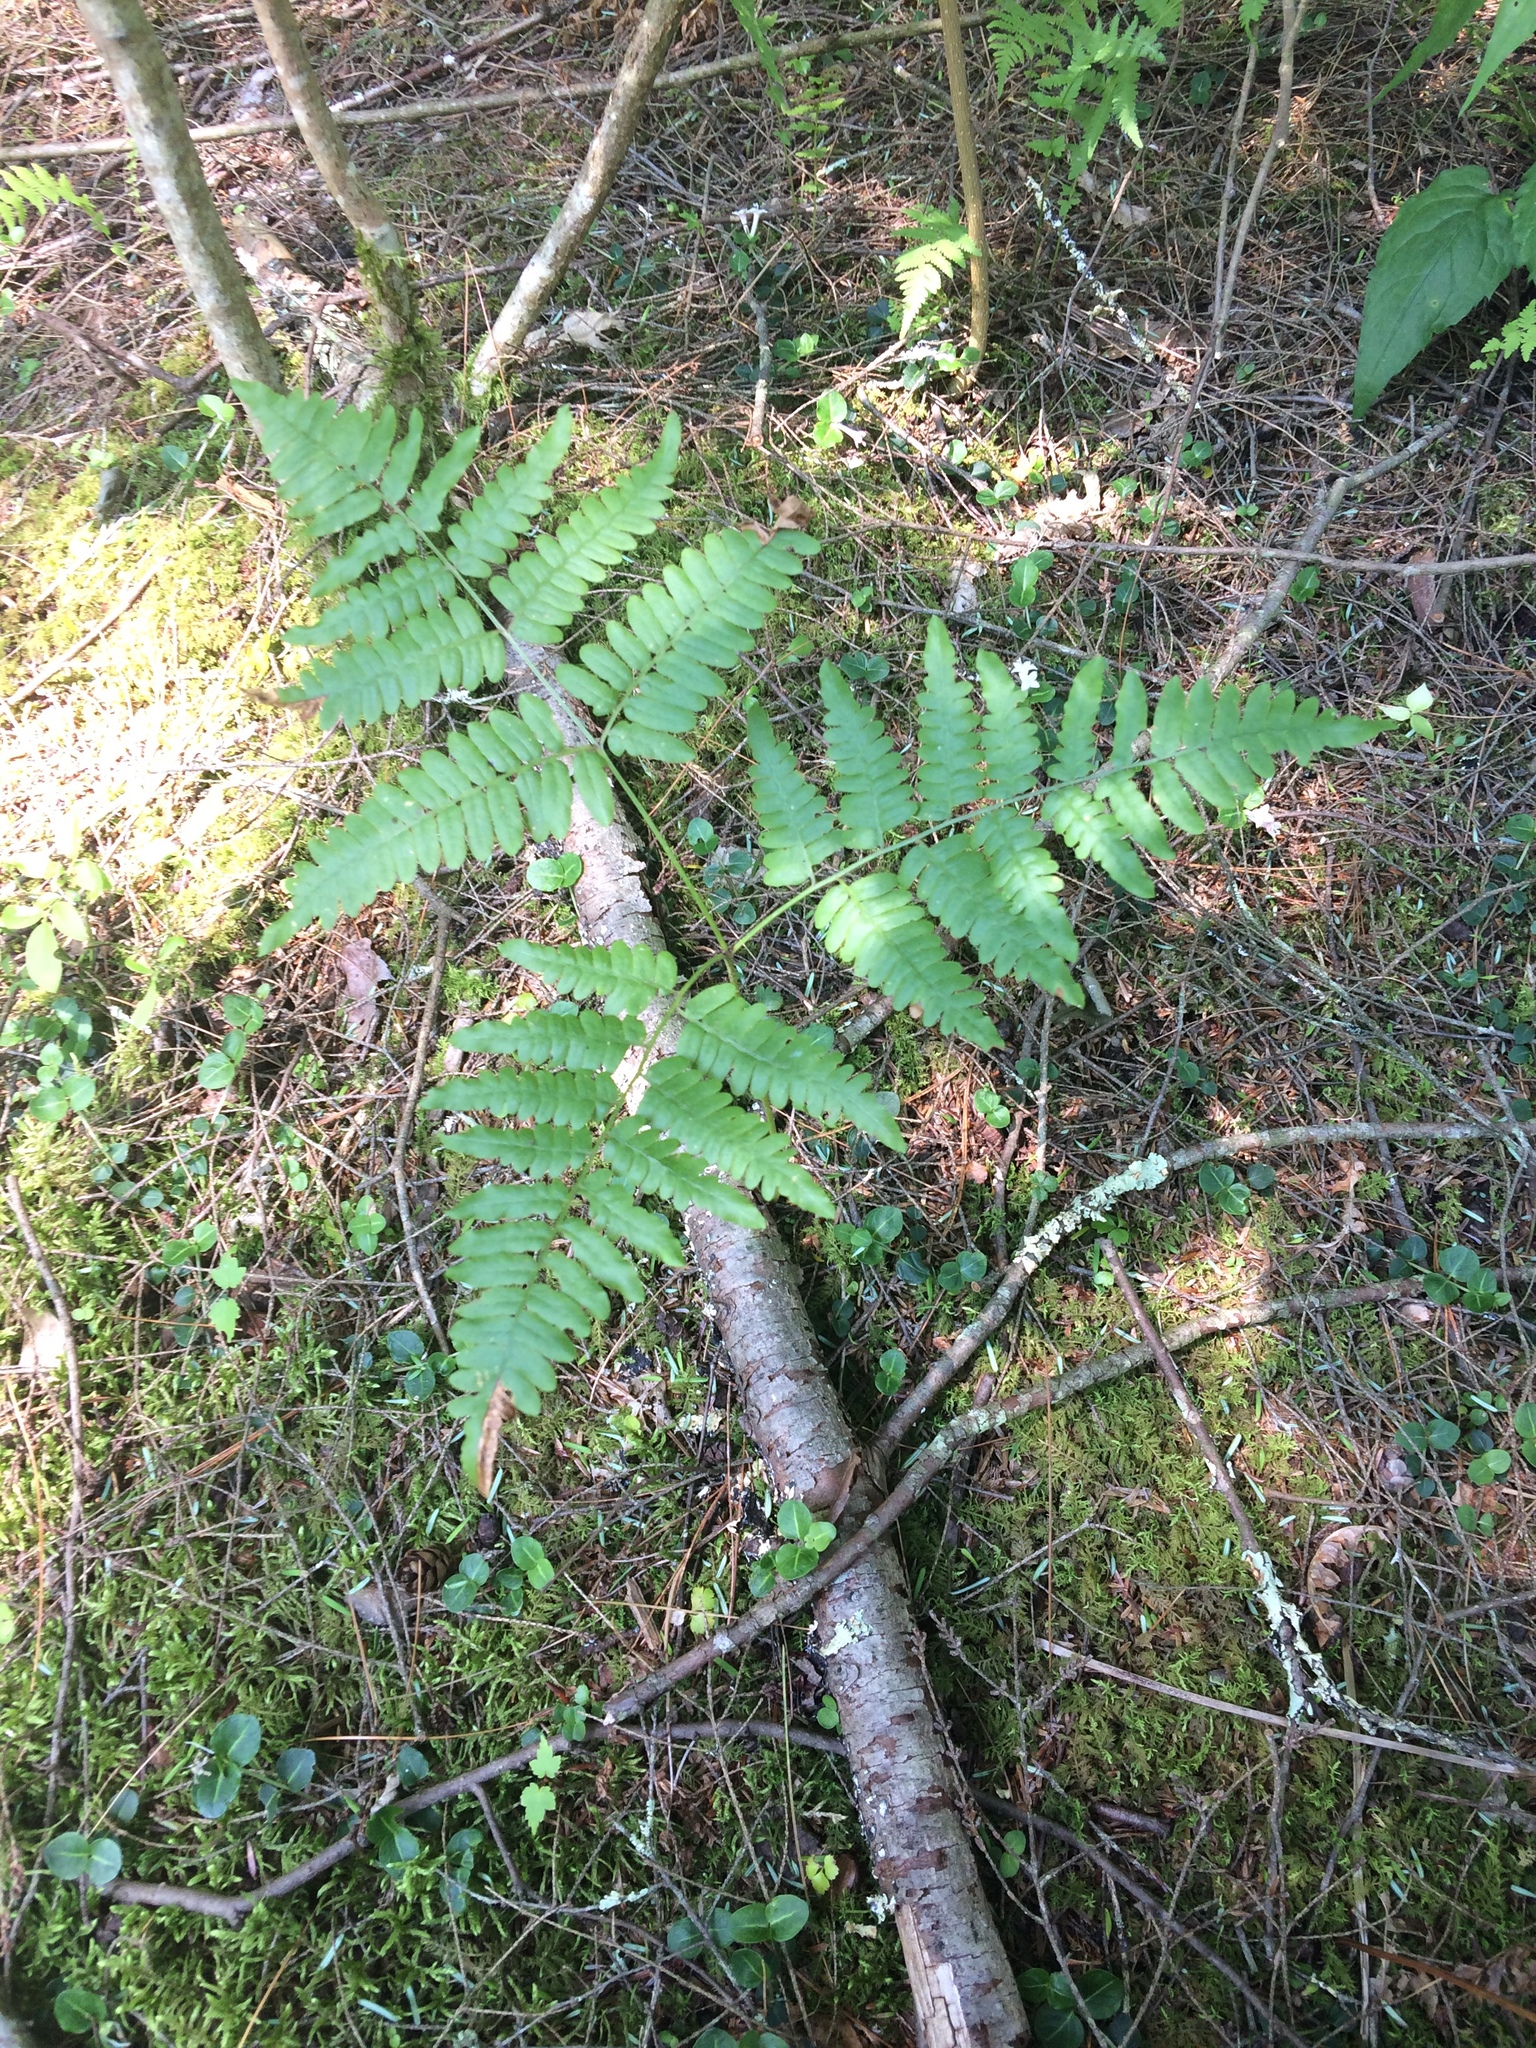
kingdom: Plantae
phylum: Tracheophyta
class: Polypodiopsida
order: Polypodiales
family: Dennstaedtiaceae
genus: Pteridium
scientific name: Pteridium aquilinum
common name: Bracken
